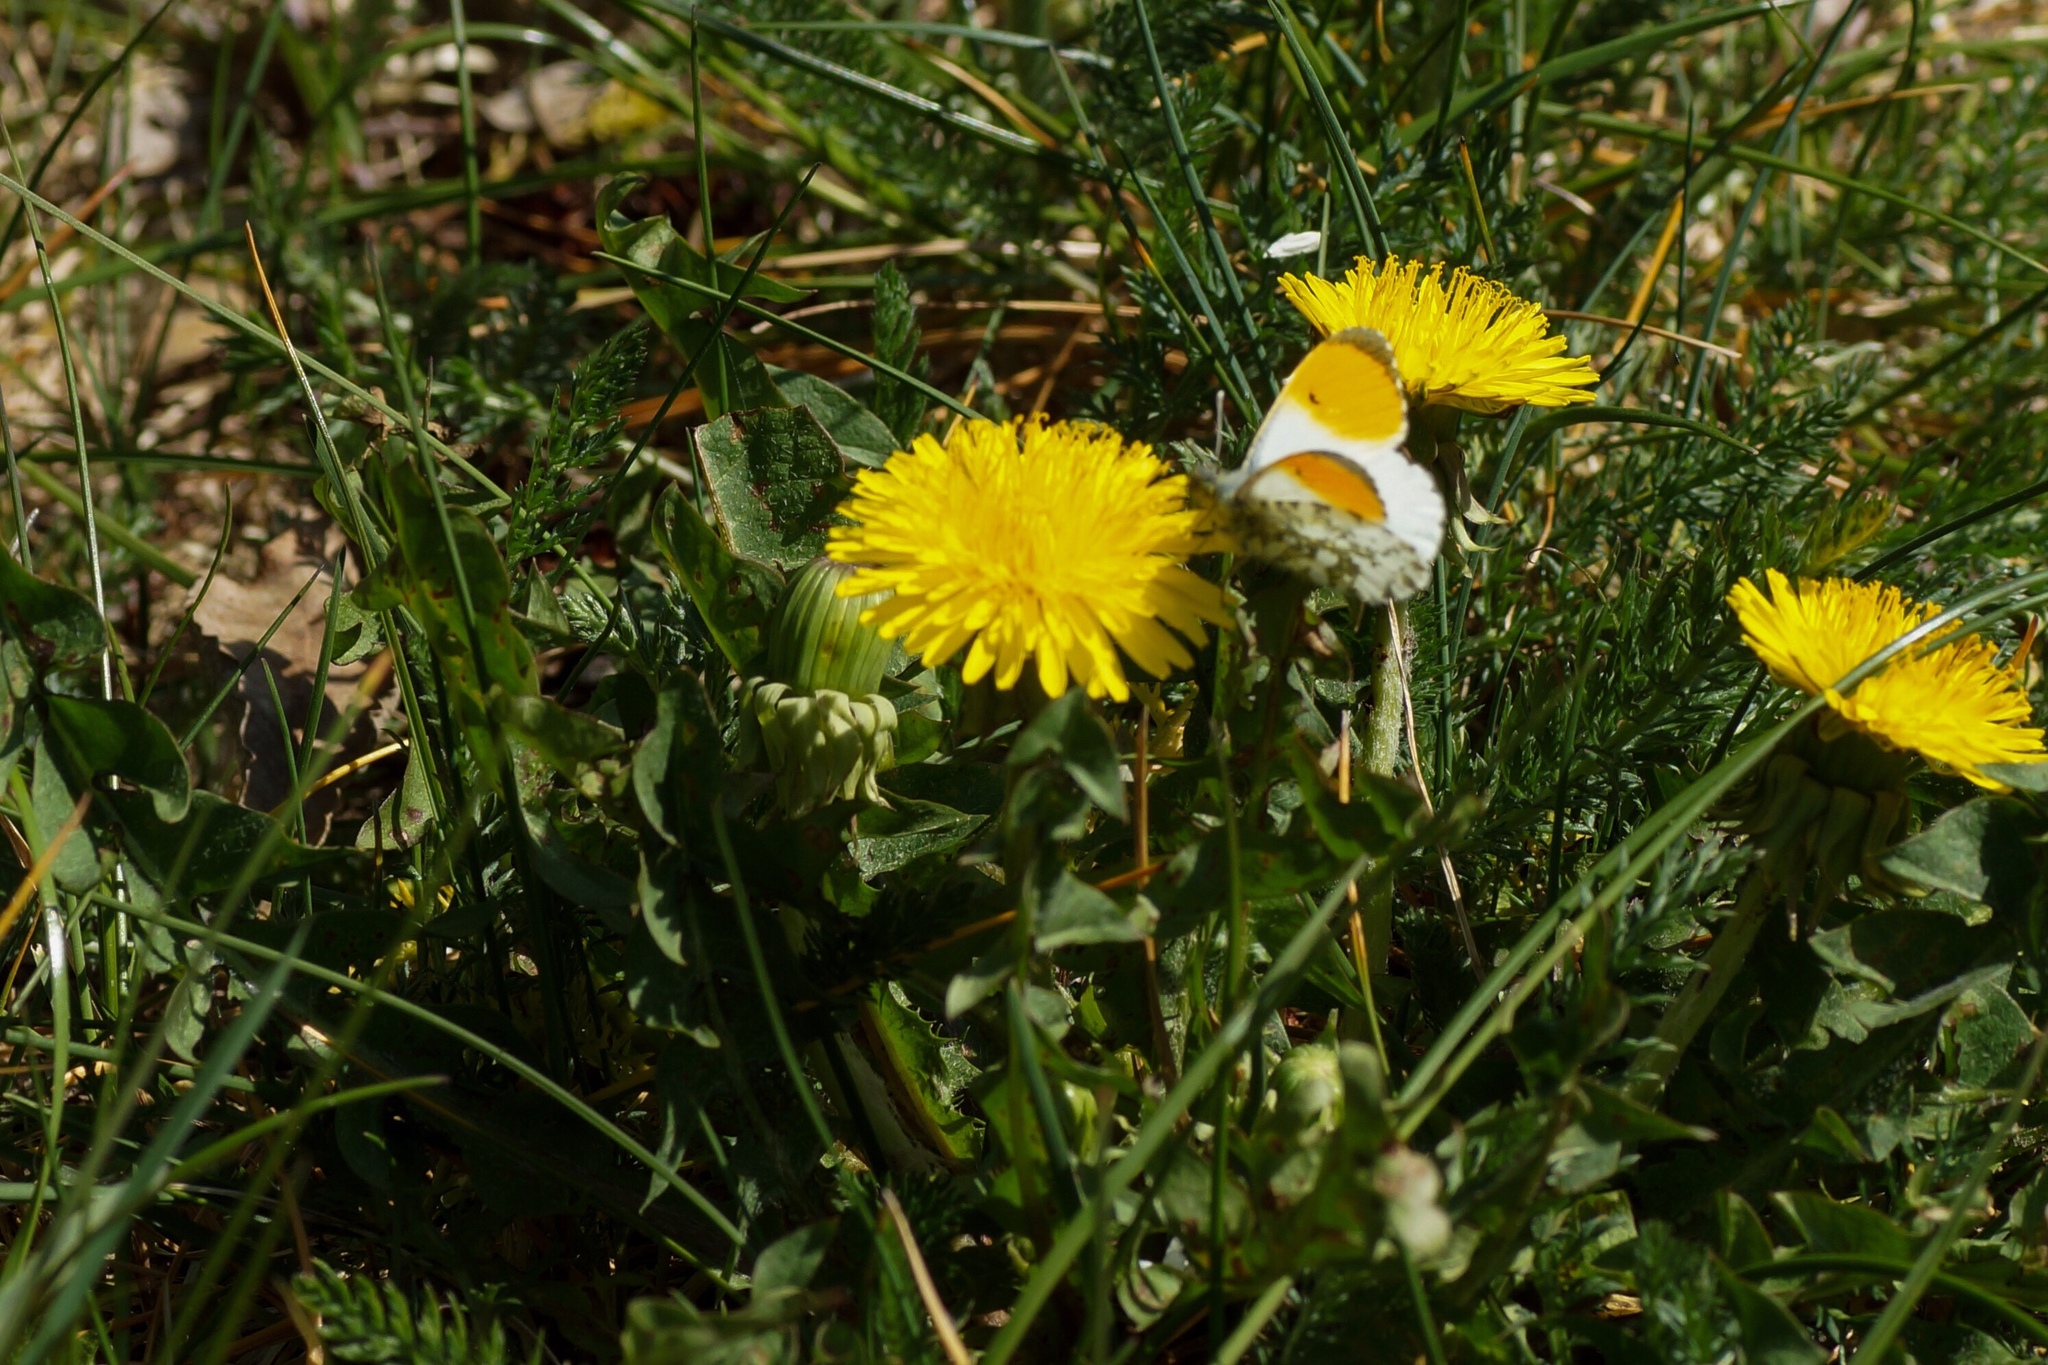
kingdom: Animalia
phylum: Arthropoda
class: Insecta
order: Lepidoptera
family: Pieridae
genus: Anthocharis
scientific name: Anthocharis cardamines
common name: Orange-tip
